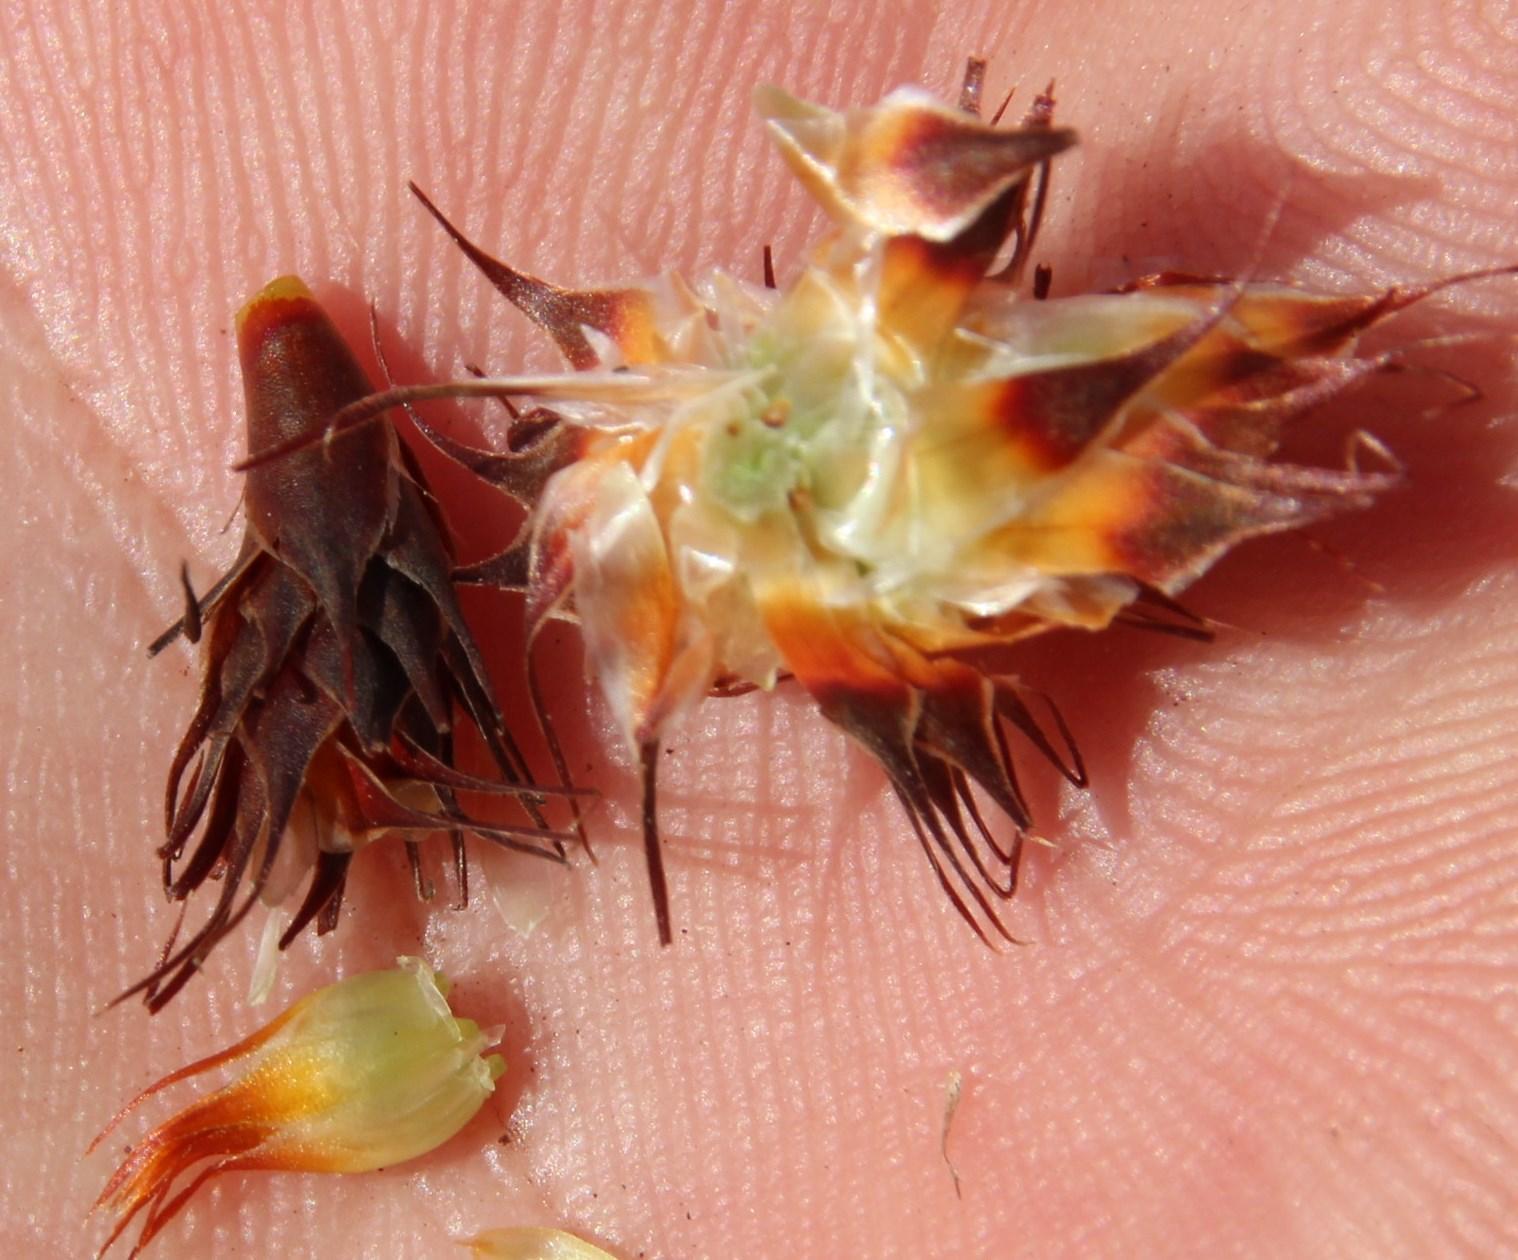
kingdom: Plantae
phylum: Tracheophyta
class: Liliopsida
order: Poales
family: Restionaceae
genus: Hypodiscus
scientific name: Hypodiscus aristatus
